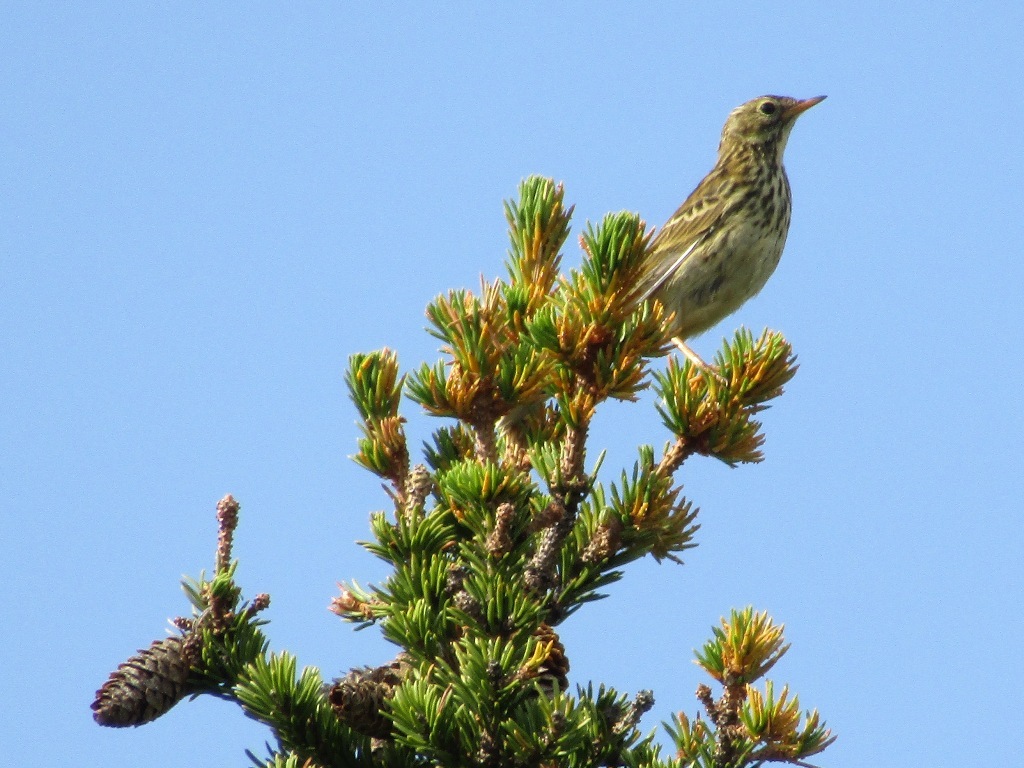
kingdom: Animalia
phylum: Chordata
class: Aves
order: Passeriformes
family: Motacillidae
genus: Anthus
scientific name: Anthus pratensis
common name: Meadow pipit
